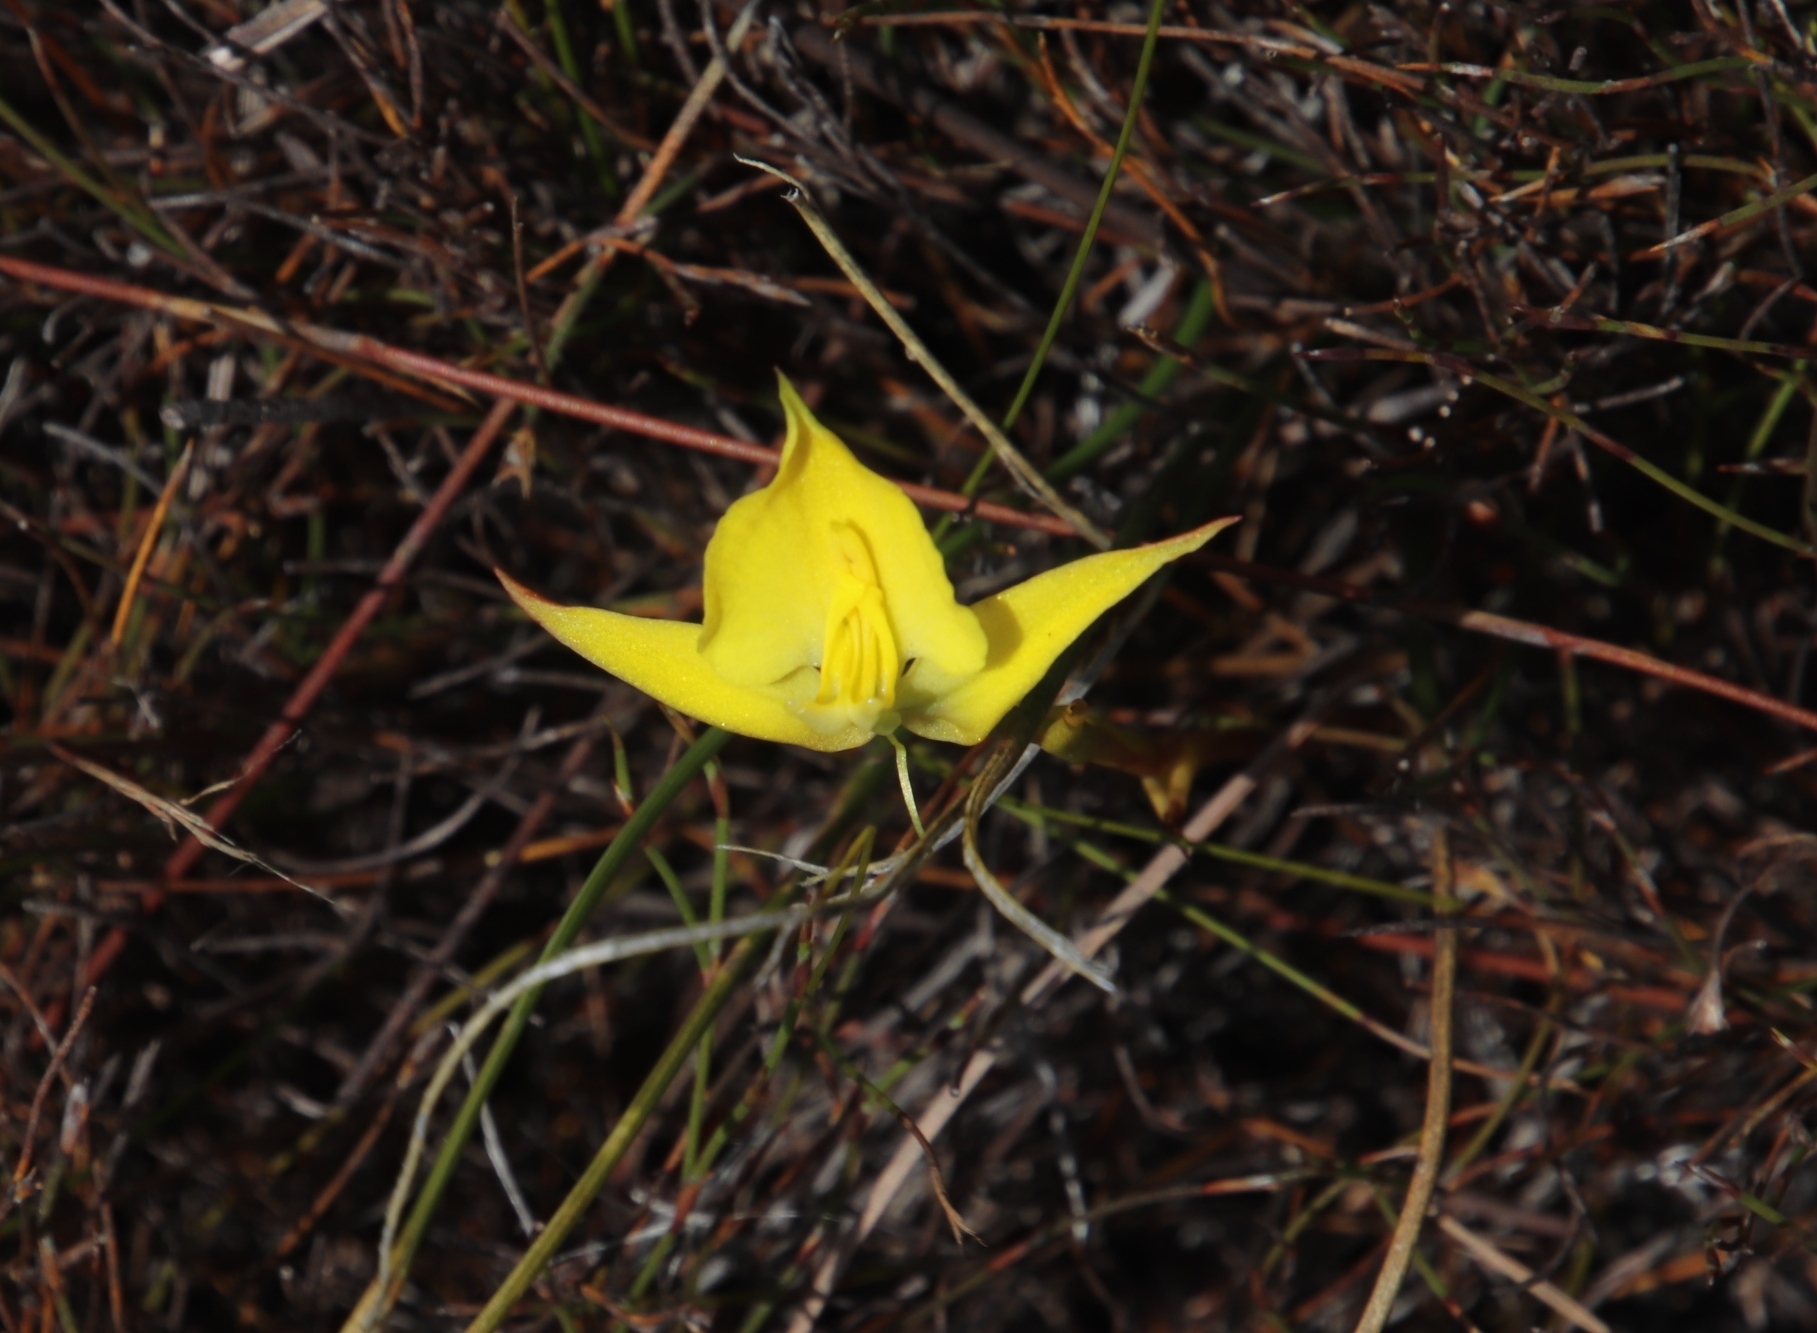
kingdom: Plantae
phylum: Tracheophyta
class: Liliopsida
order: Asparagales
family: Orchidaceae
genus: Disa
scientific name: Disa tenuifolia
